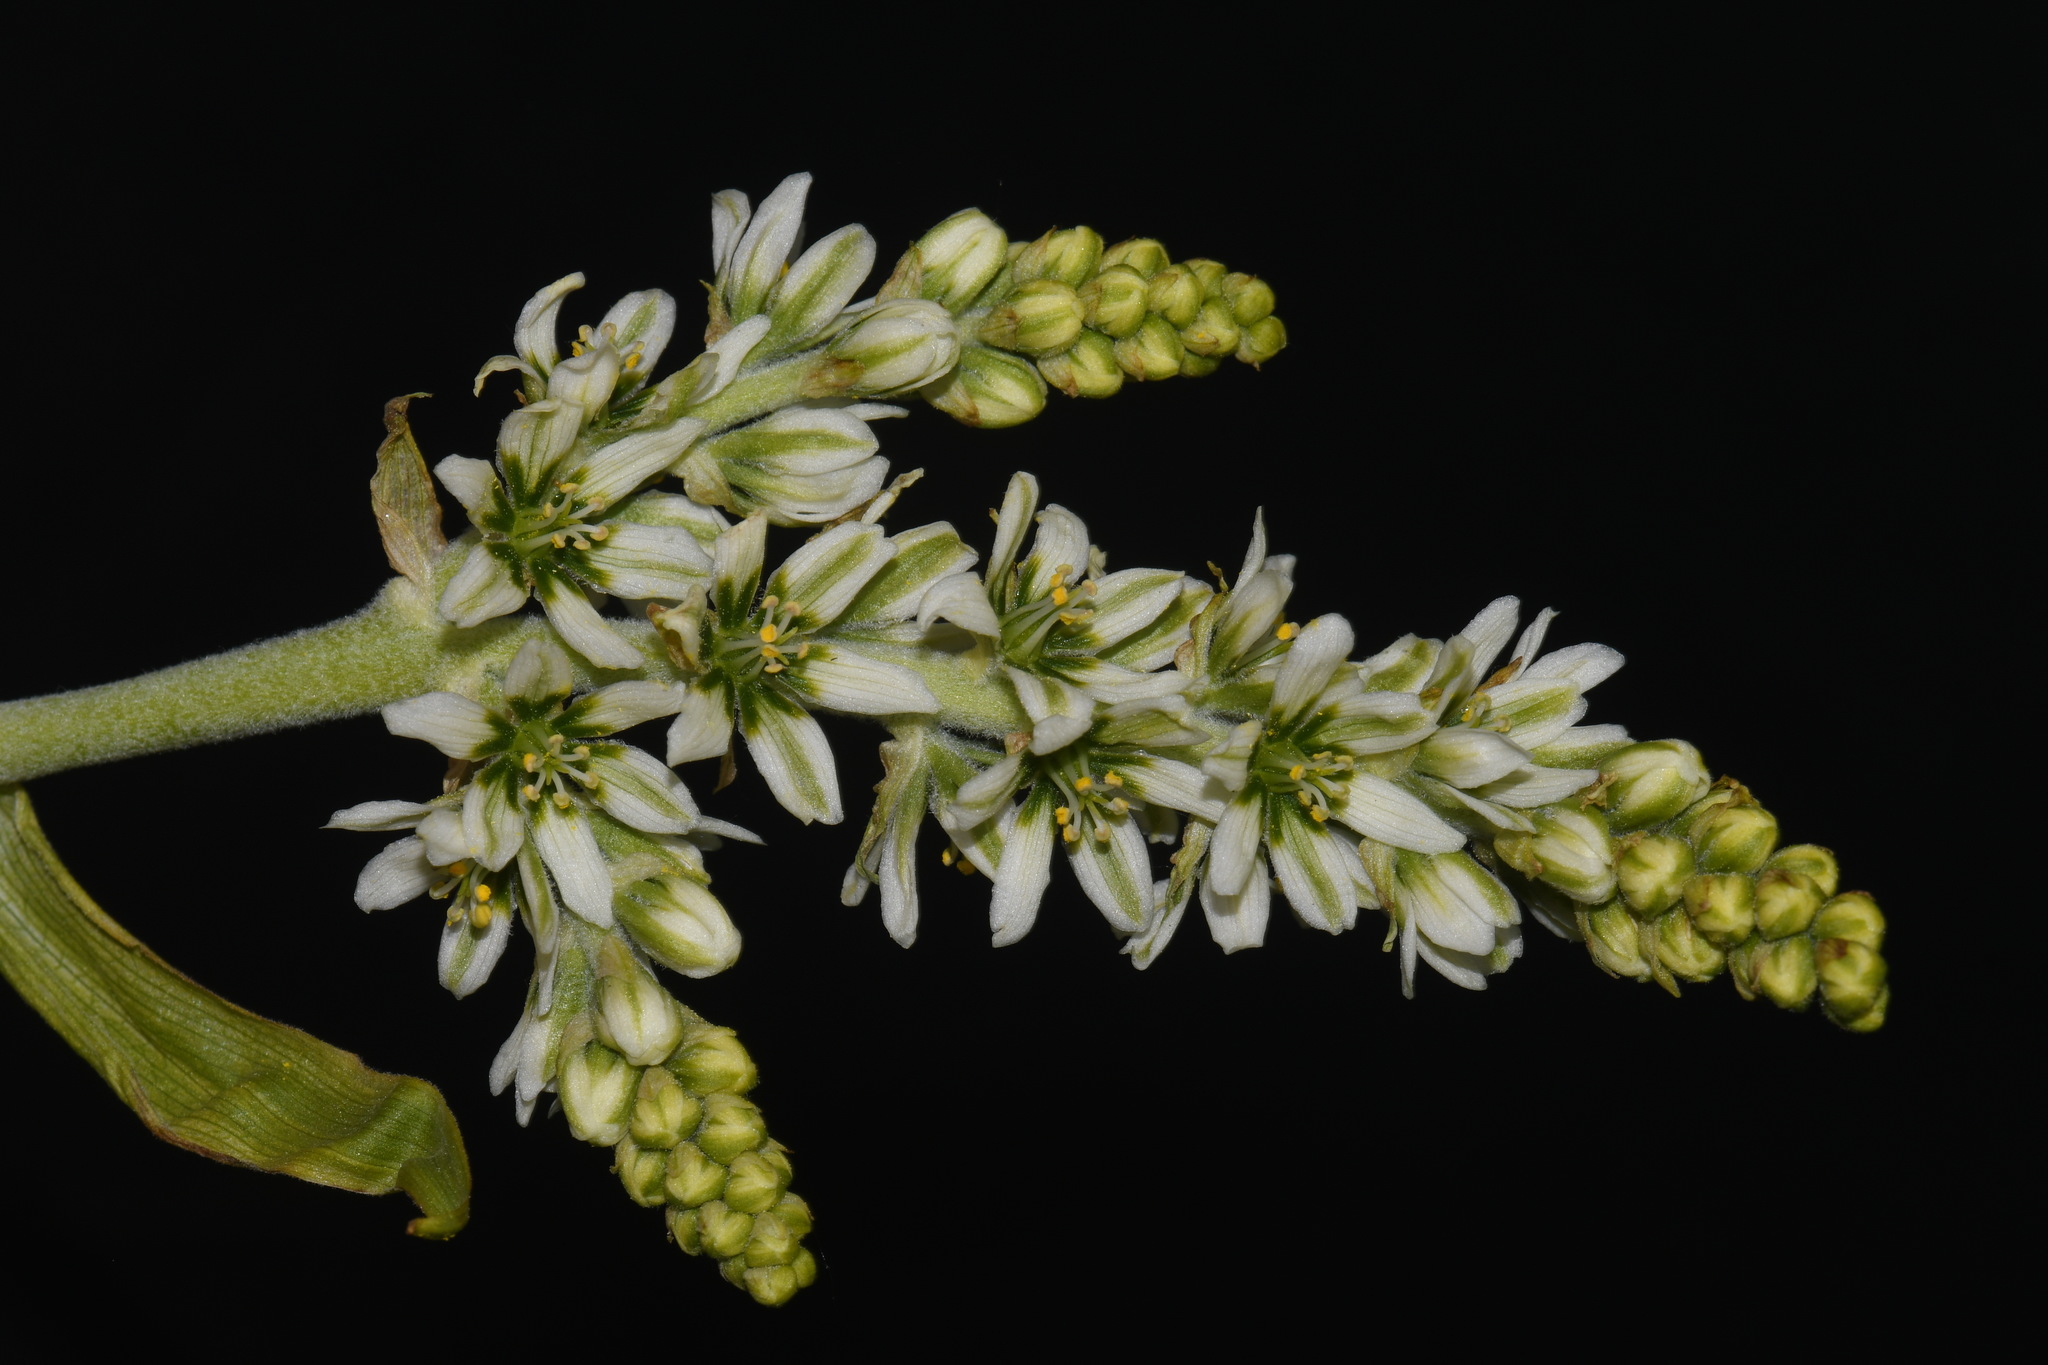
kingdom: Plantae
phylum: Tracheophyta
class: Liliopsida
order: Liliales
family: Melanthiaceae
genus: Veratrum
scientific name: Veratrum californicum
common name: California veratrum
